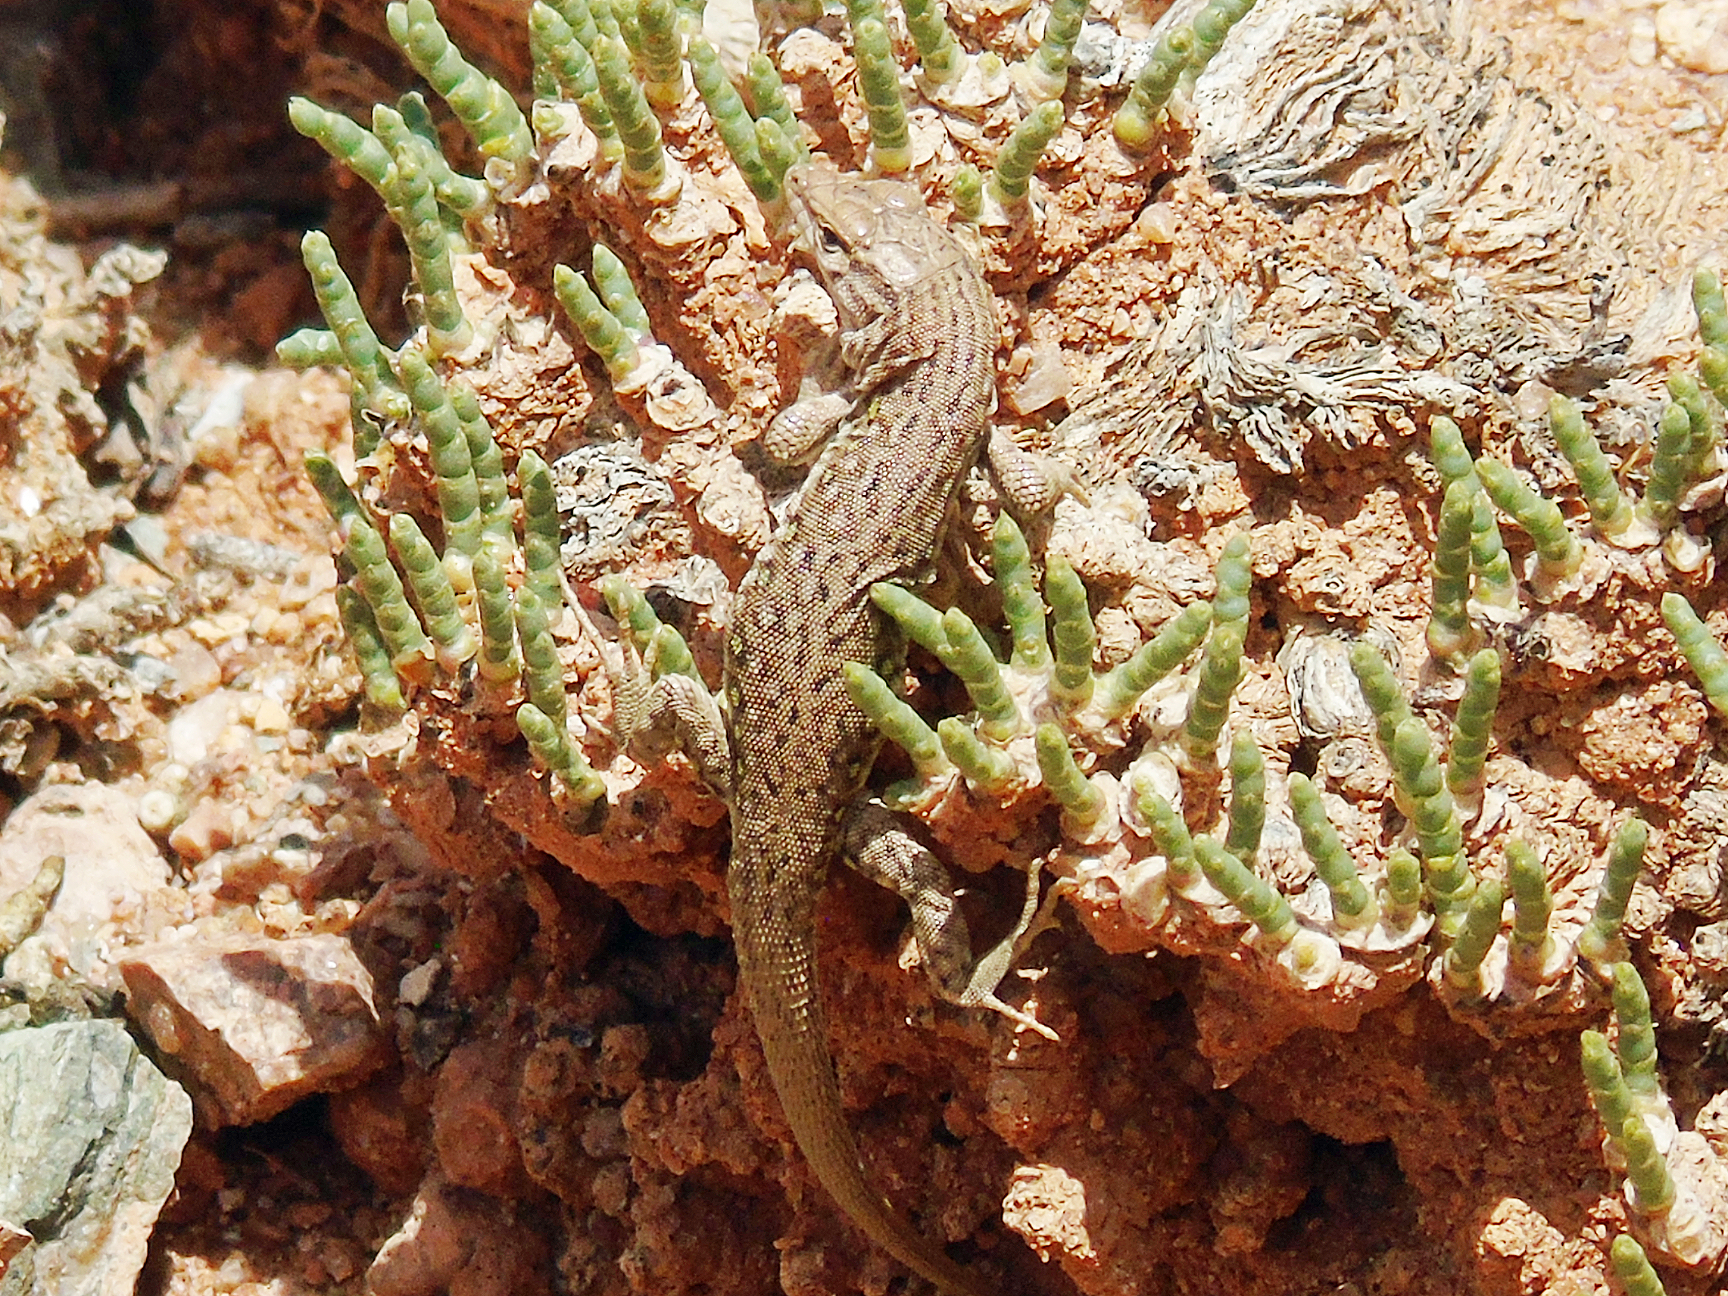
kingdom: Animalia
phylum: Chordata
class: Squamata
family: Lacertidae
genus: Eremias
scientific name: Eremias stummeri
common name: Stummer’s racerunner
